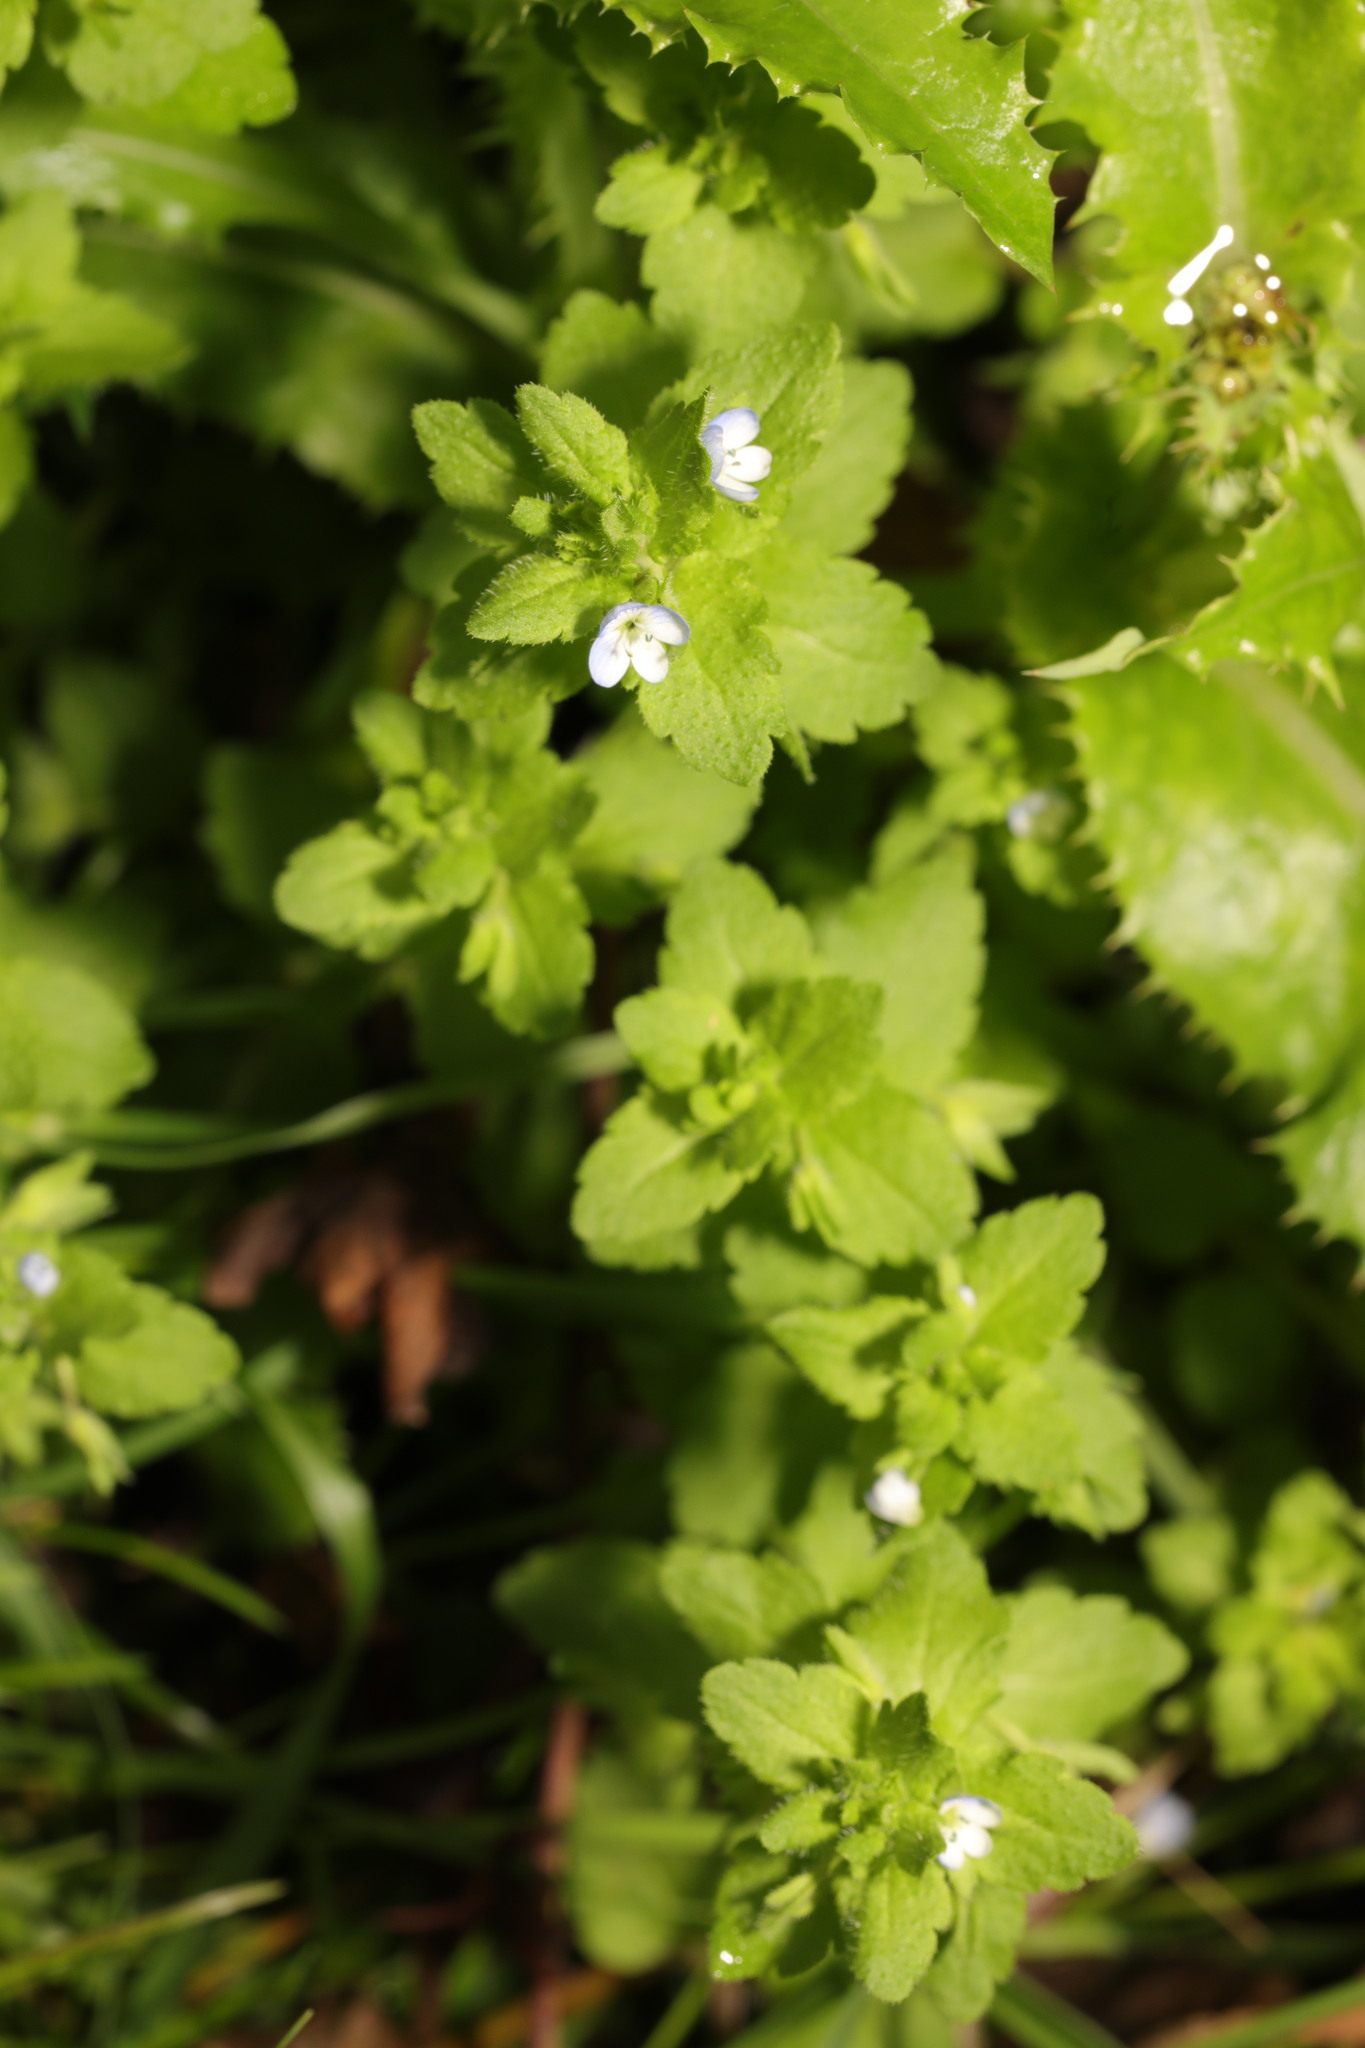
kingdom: Plantae
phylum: Tracheophyta
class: Magnoliopsida
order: Lamiales
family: Plantaginaceae
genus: Veronica
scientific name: Veronica agrestis
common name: Green field-speedwell
